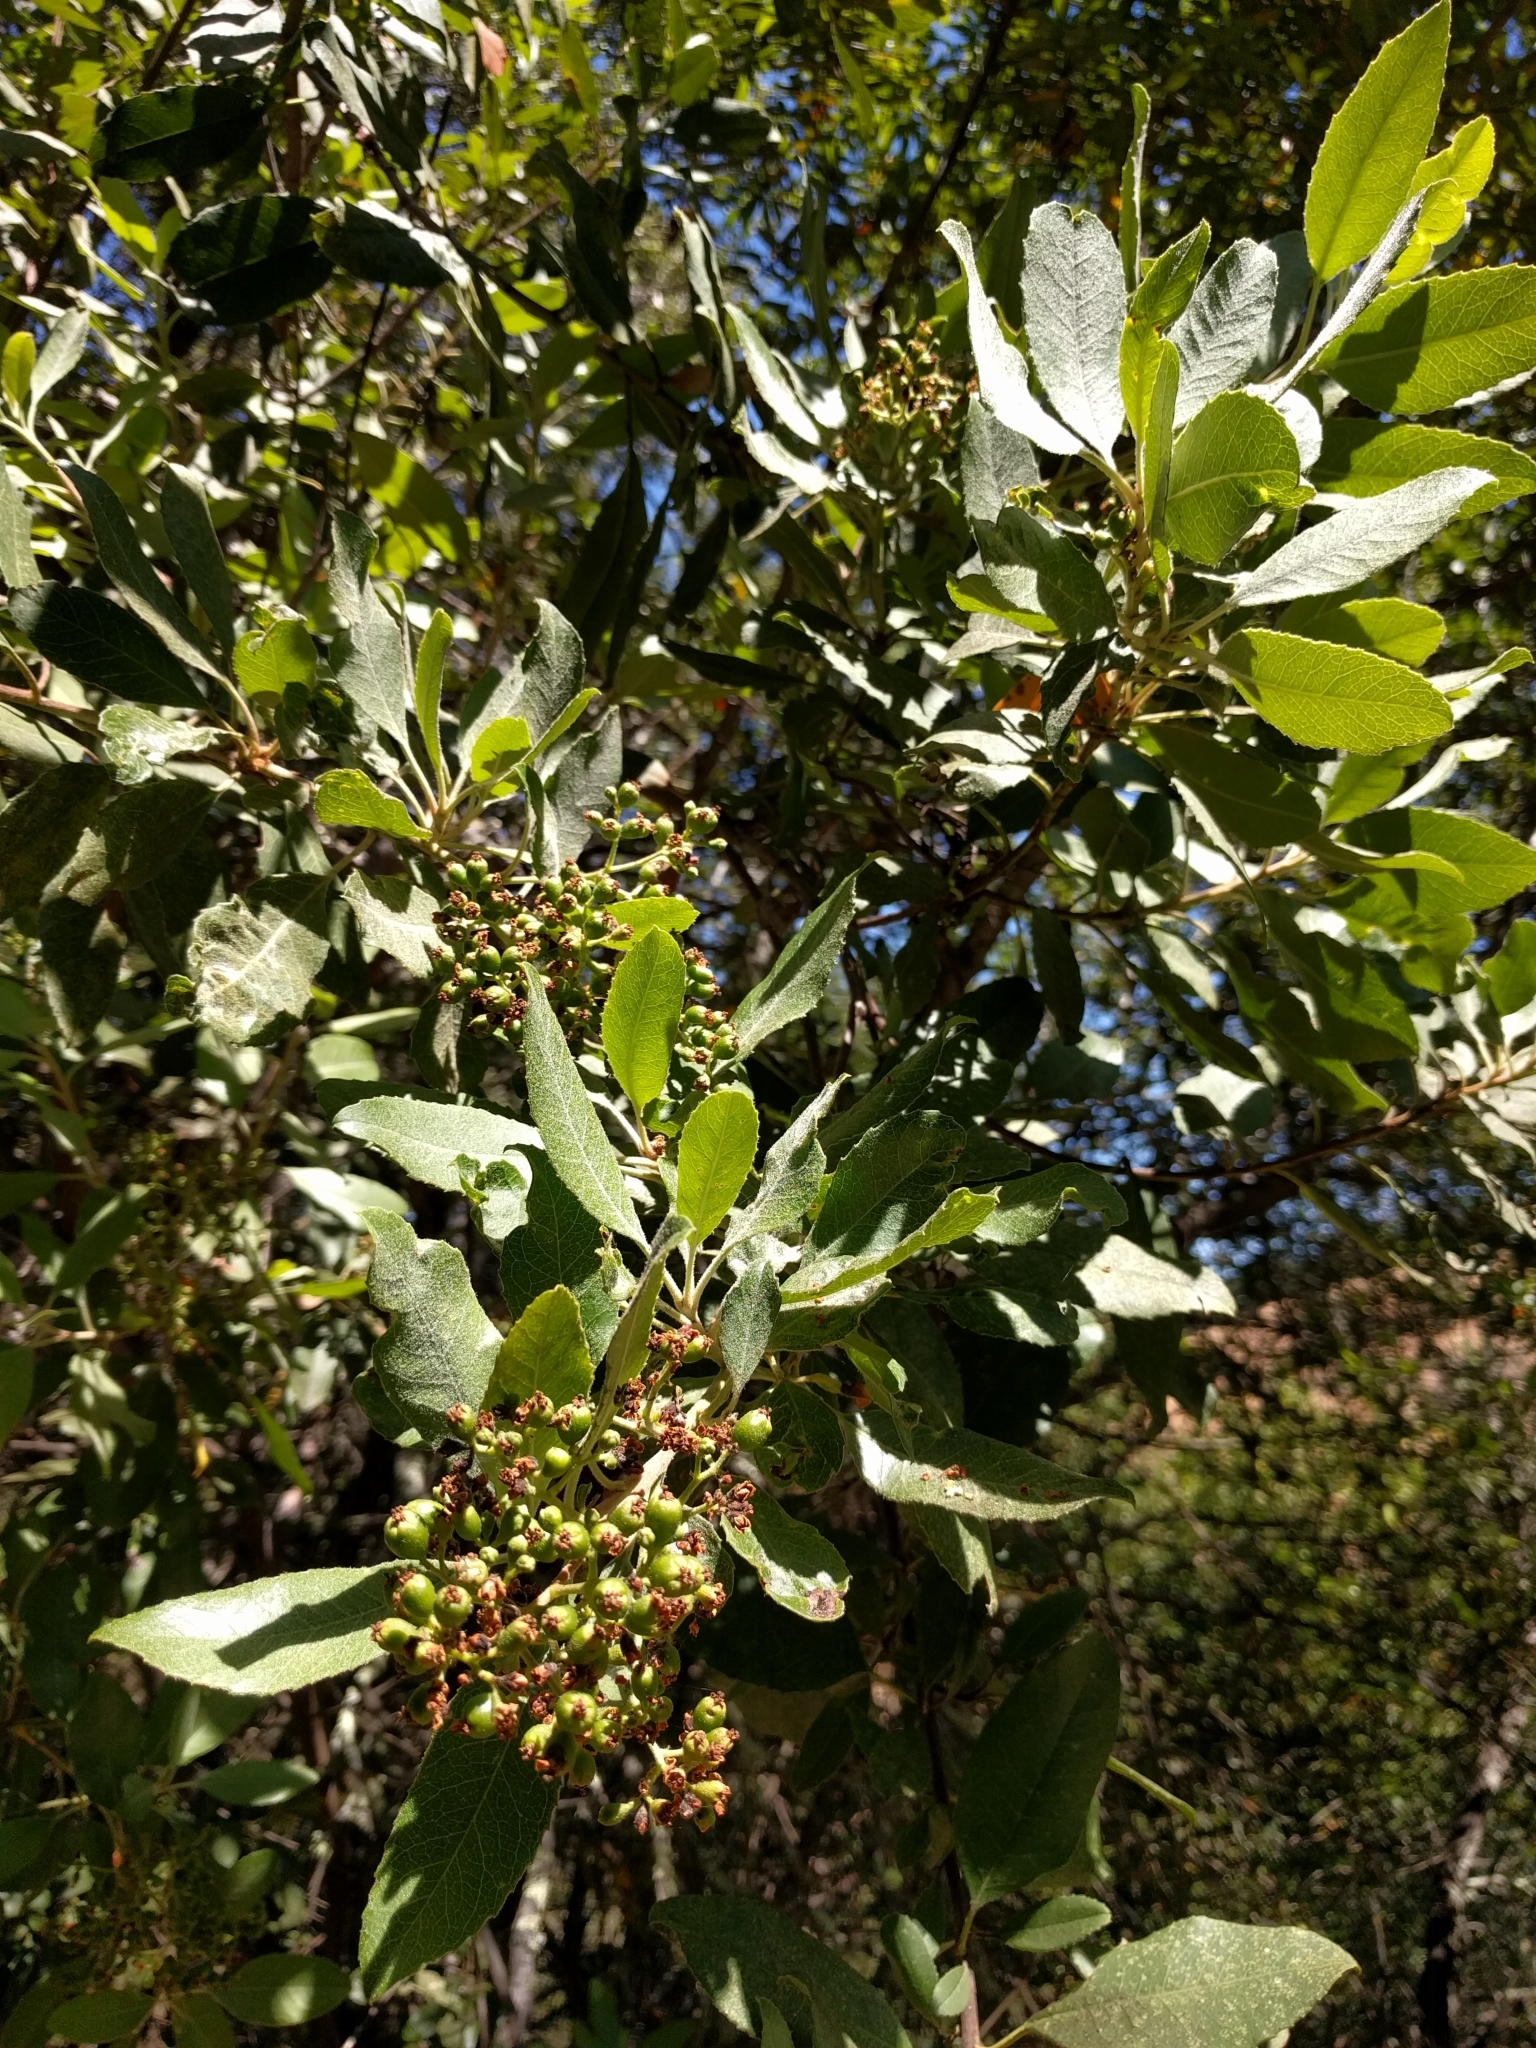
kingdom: Plantae
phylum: Tracheophyta
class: Magnoliopsida
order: Rosales
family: Rosaceae
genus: Heteromeles
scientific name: Heteromeles arbutifolia
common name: California-holly
